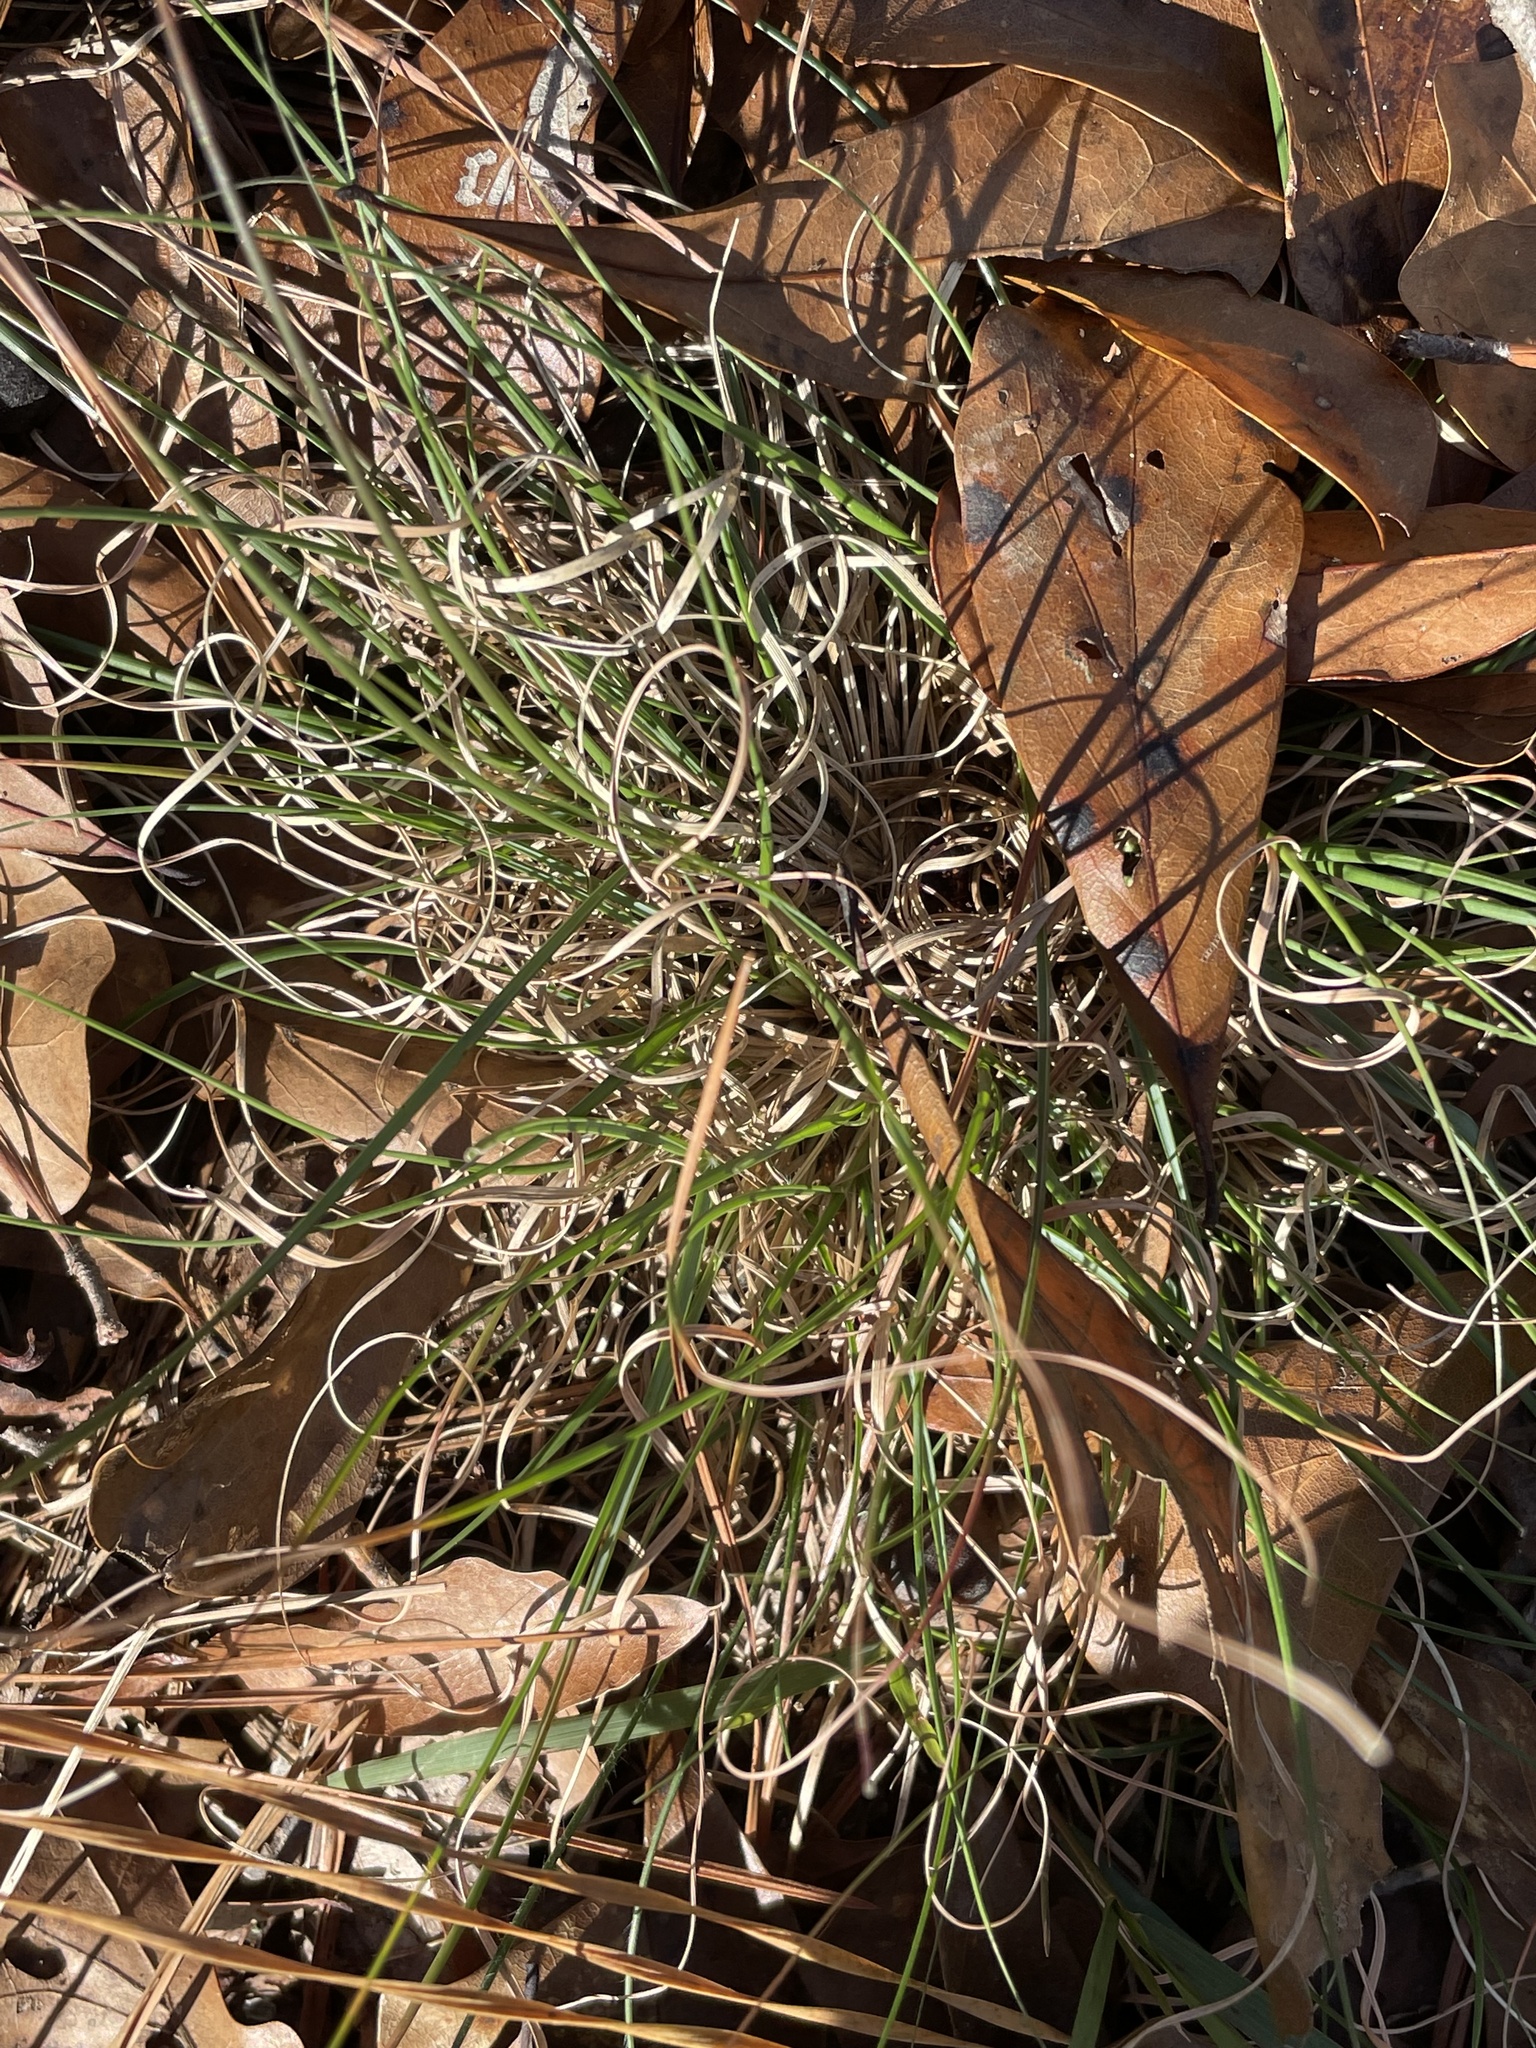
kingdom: Plantae
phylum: Tracheophyta
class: Liliopsida
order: Poales
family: Poaceae
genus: Danthonia
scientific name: Danthonia spicata
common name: Common wild oatgrass
